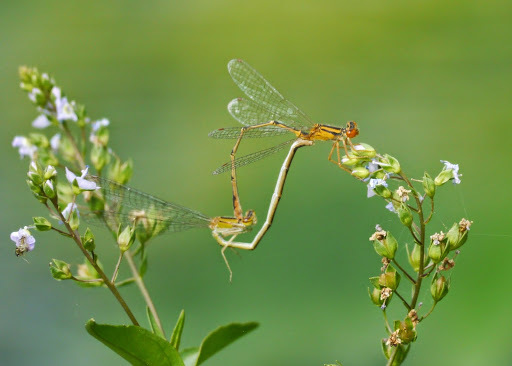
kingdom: Animalia
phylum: Arthropoda
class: Insecta
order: Odonata
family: Coenagrionidae
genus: Enallagma
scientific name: Enallagma signatum
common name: Orange bluet
